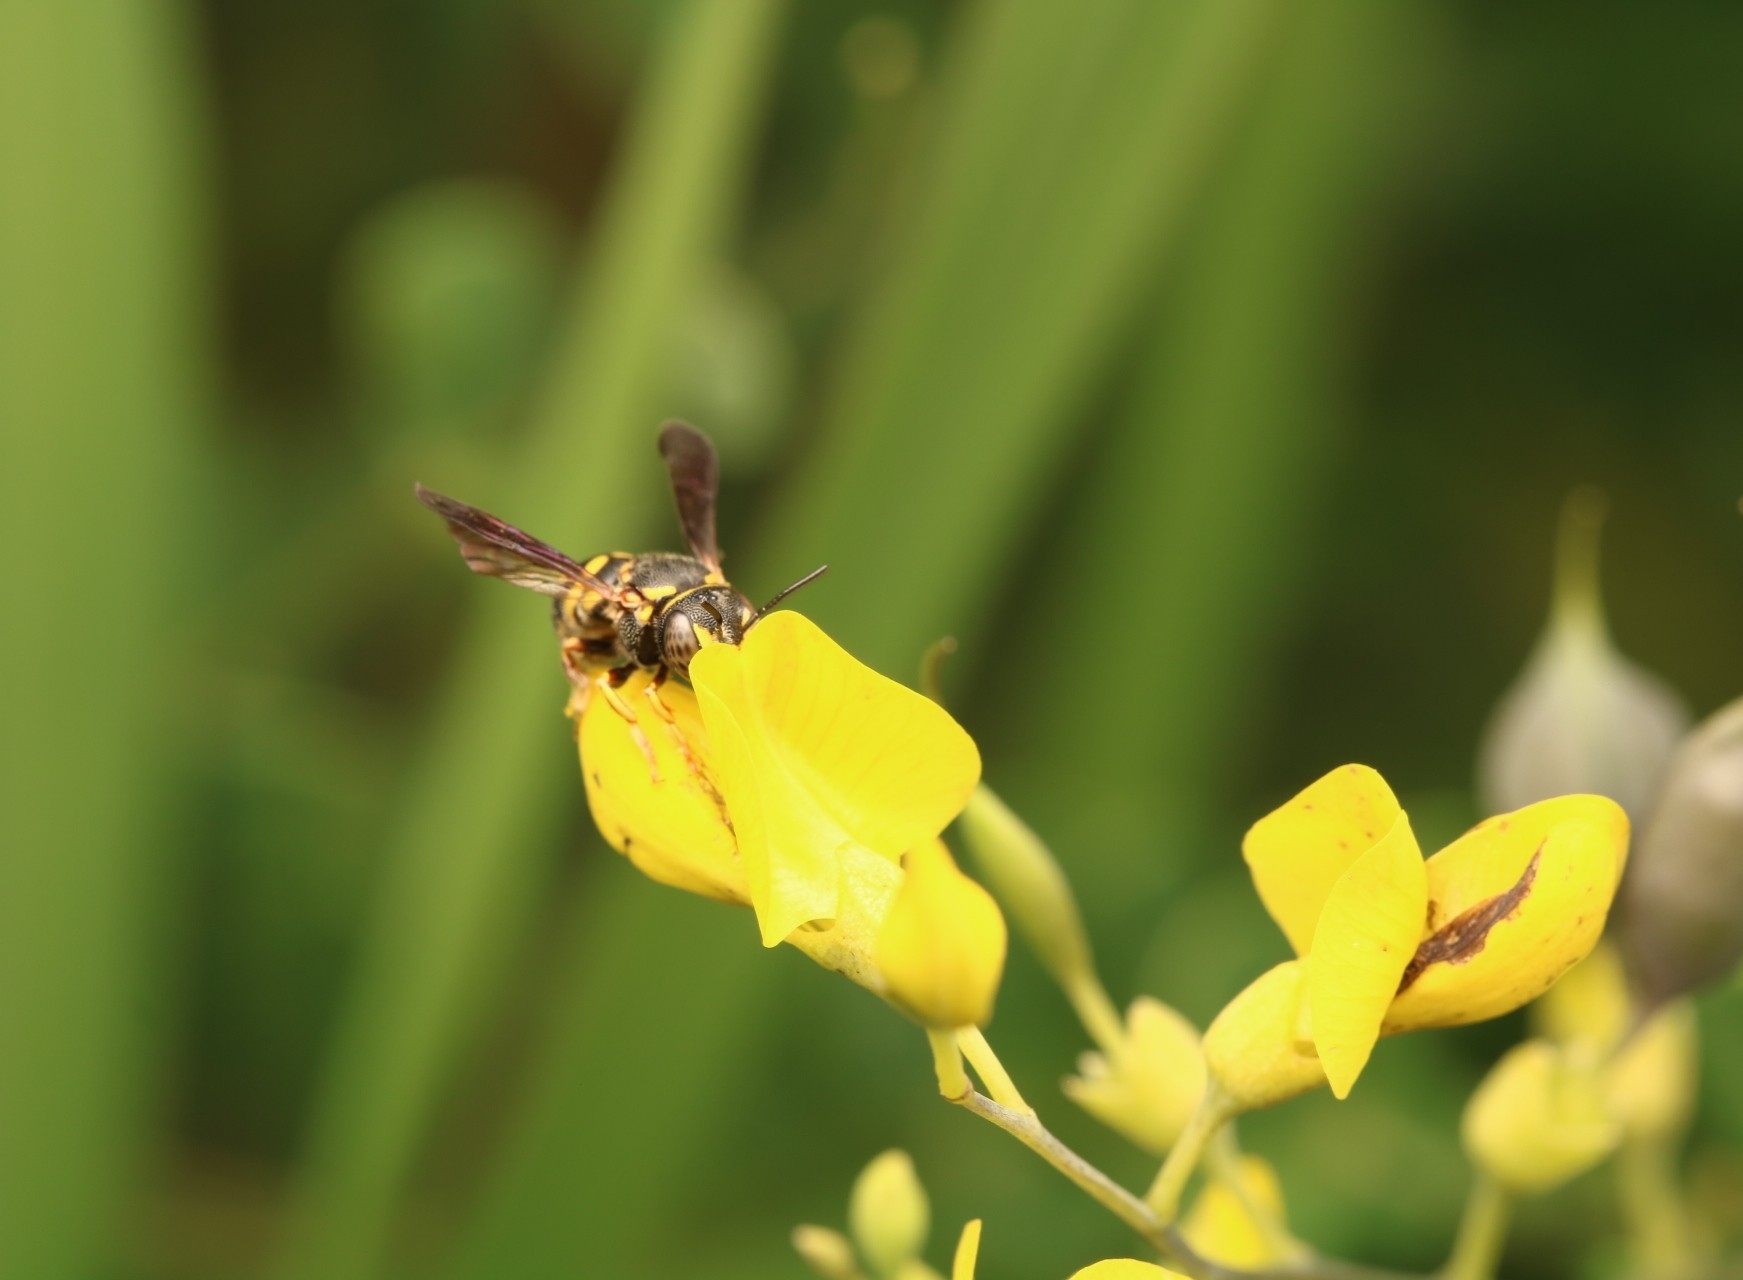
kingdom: Animalia
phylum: Arthropoda
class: Insecta
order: Hymenoptera
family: Megachilidae
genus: Anthidiellum
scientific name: Anthidiellum notatum
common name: Northern rotund-resin bee
